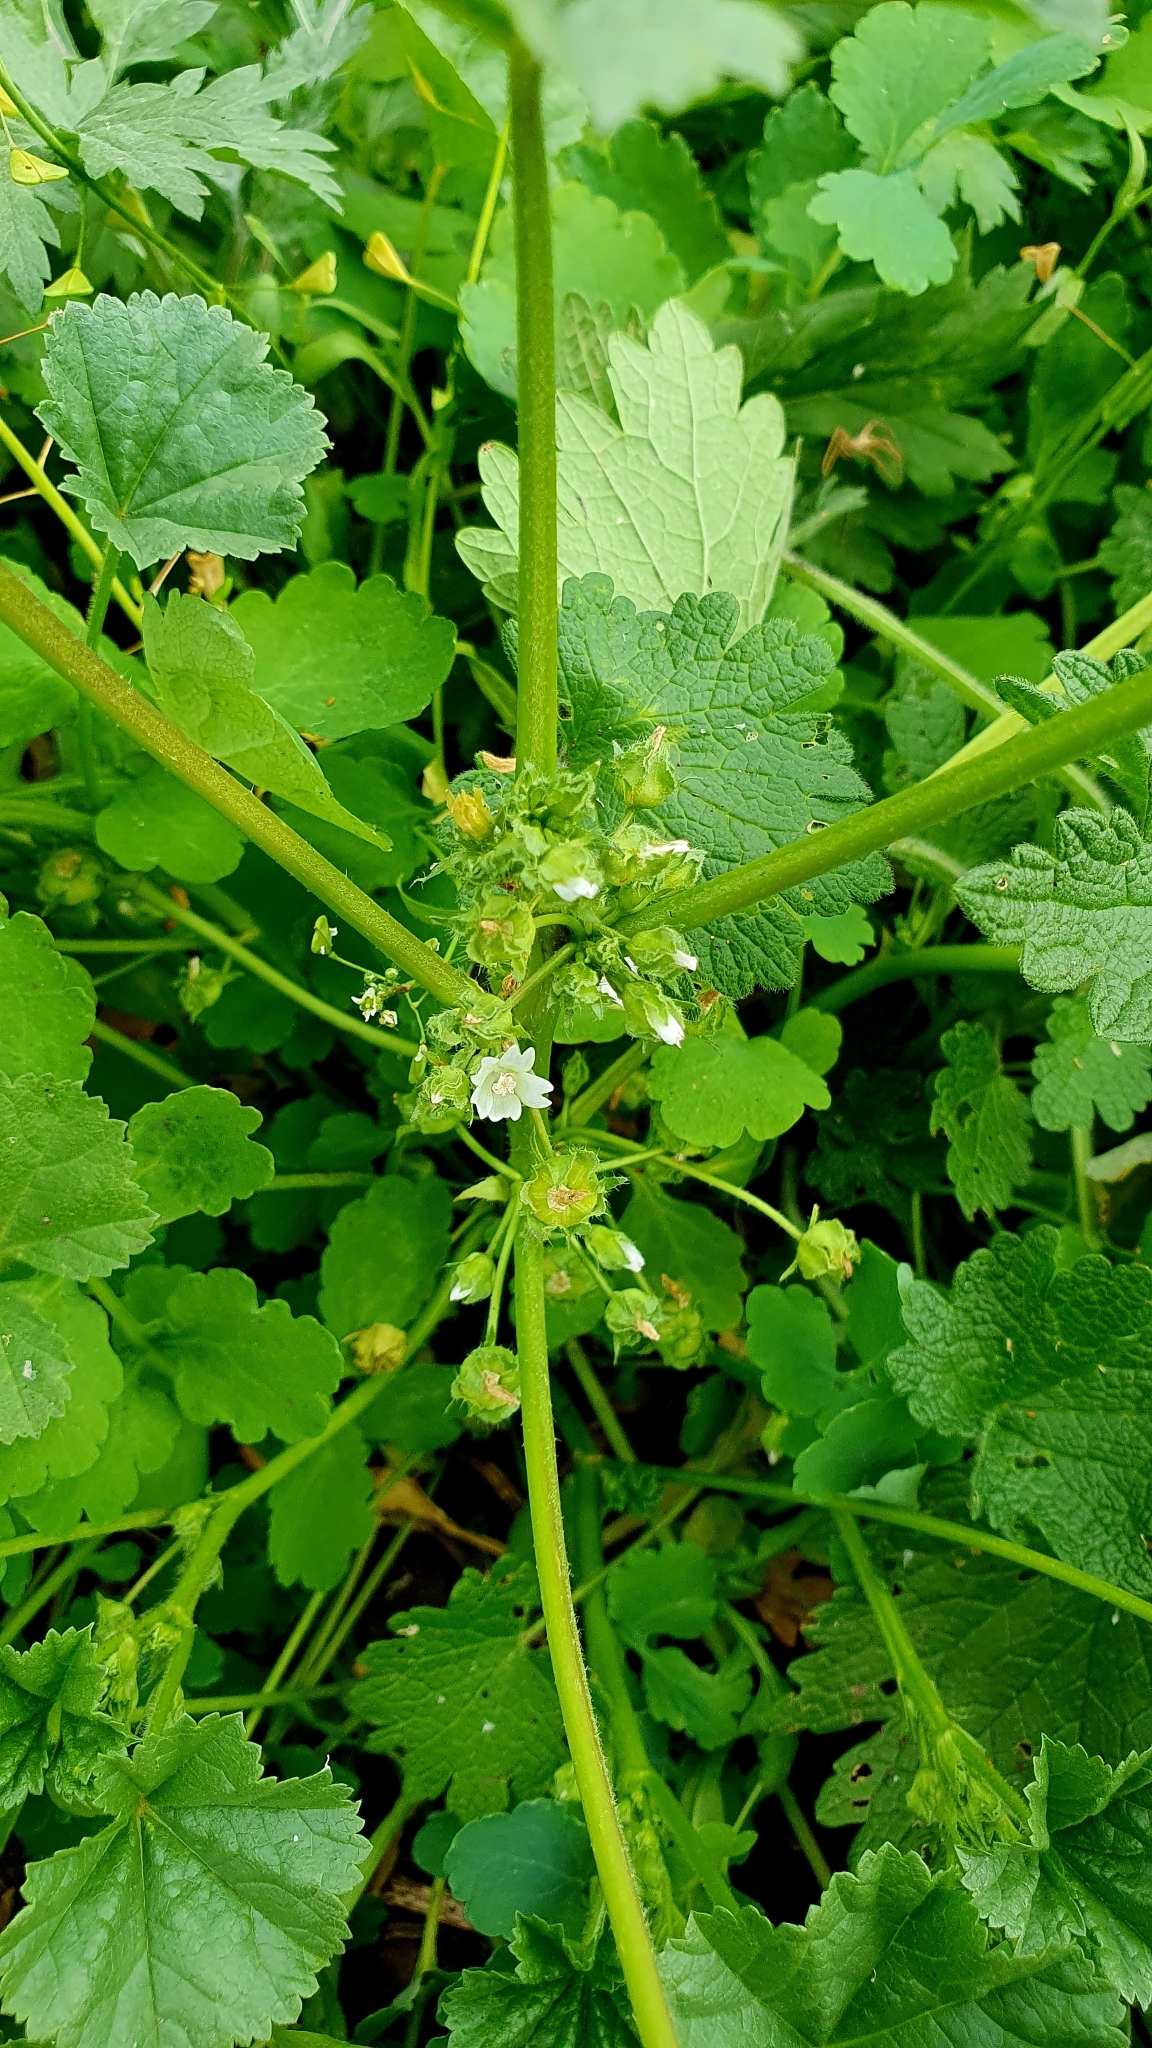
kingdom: Plantae
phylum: Tracheophyta
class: Magnoliopsida
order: Malvales
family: Malvaceae
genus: Malva
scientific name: Malva pusilla
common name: Small mallow
